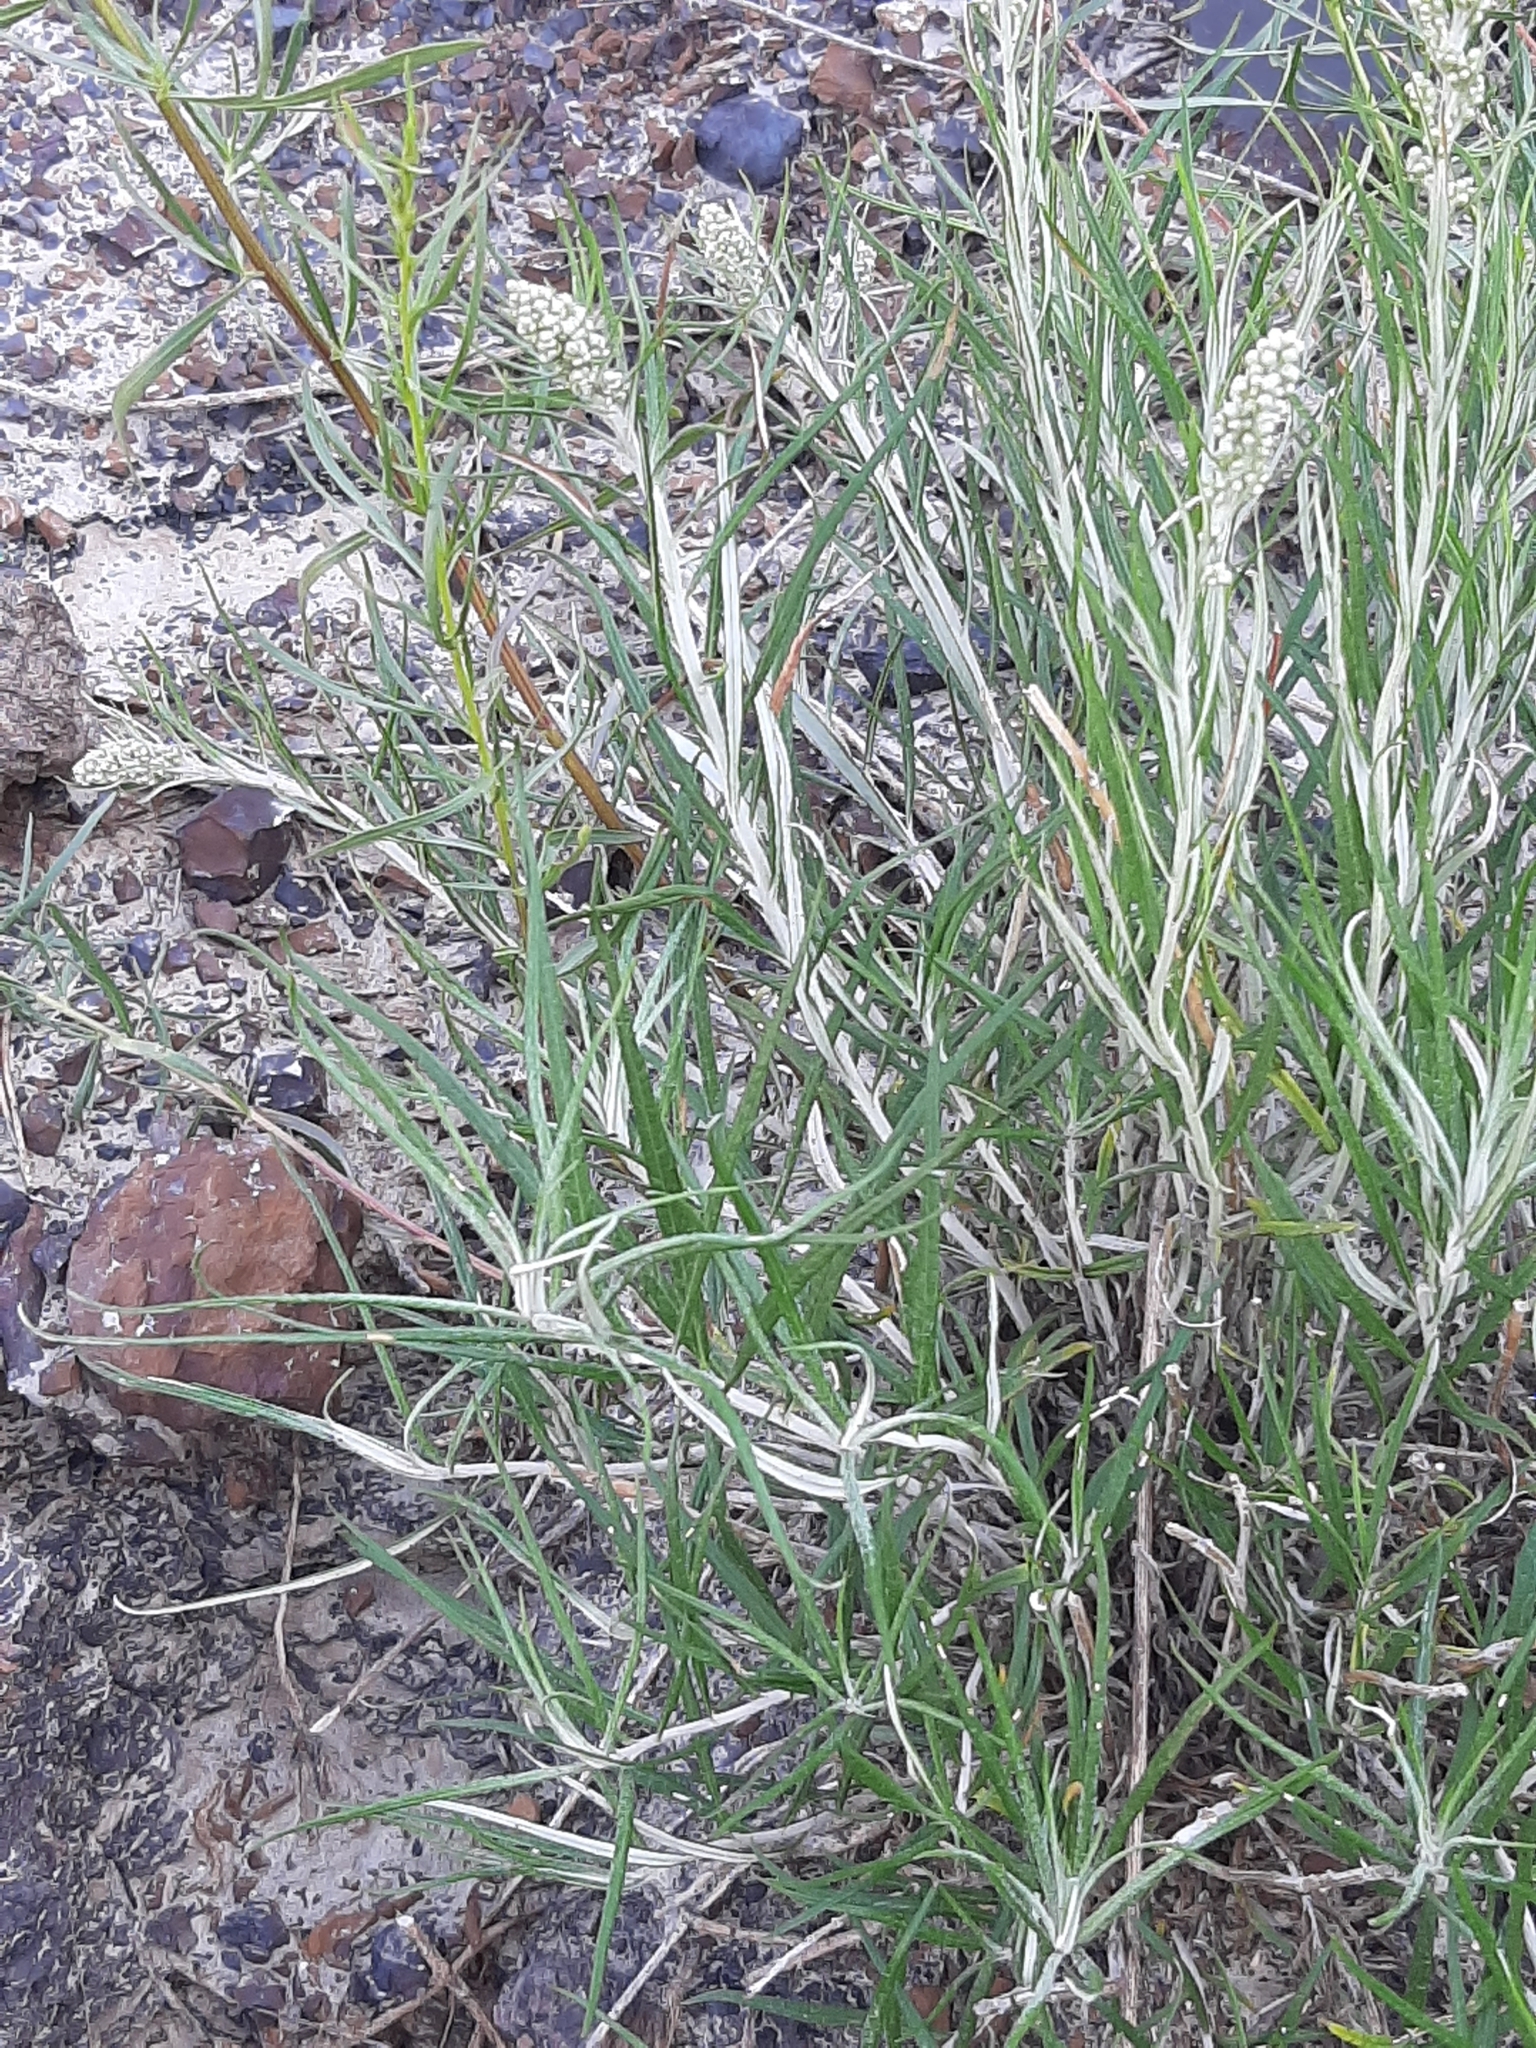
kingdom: Plantae
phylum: Tracheophyta
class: Magnoliopsida
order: Asterales
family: Asteraceae
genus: Artemisia
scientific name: Artemisia longifolia
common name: Long-leaved mugwort
